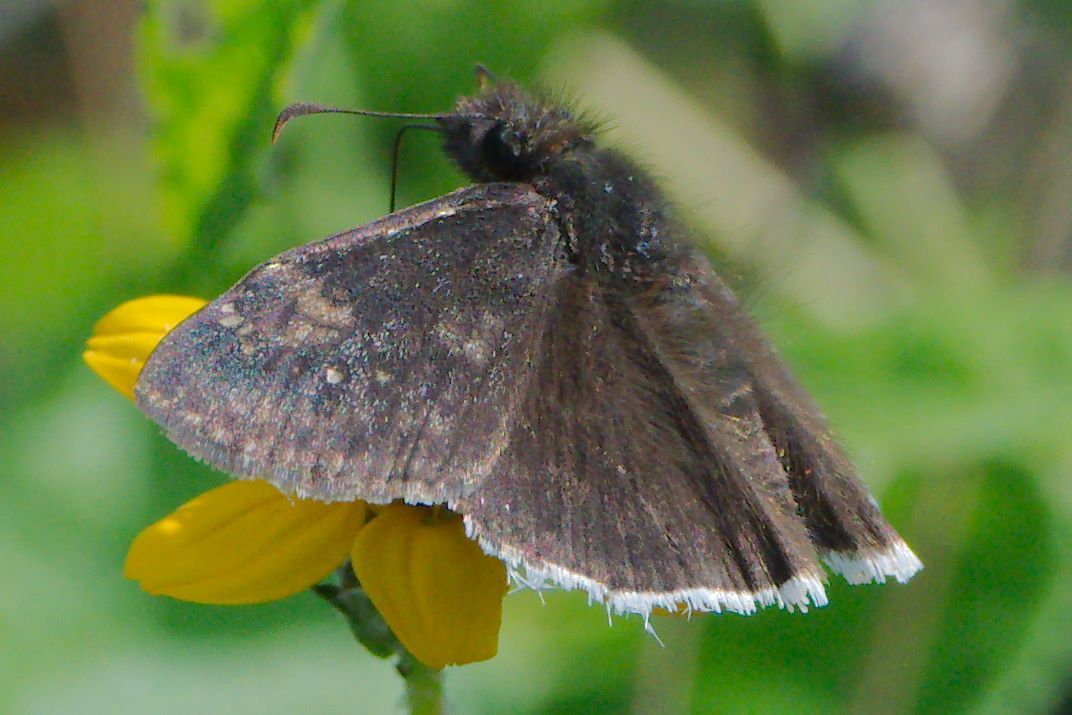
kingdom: Animalia
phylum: Arthropoda
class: Insecta
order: Lepidoptera
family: Hesperiidae
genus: Erynnis
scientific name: Erynnis funeralis
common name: Funereal duskywing
